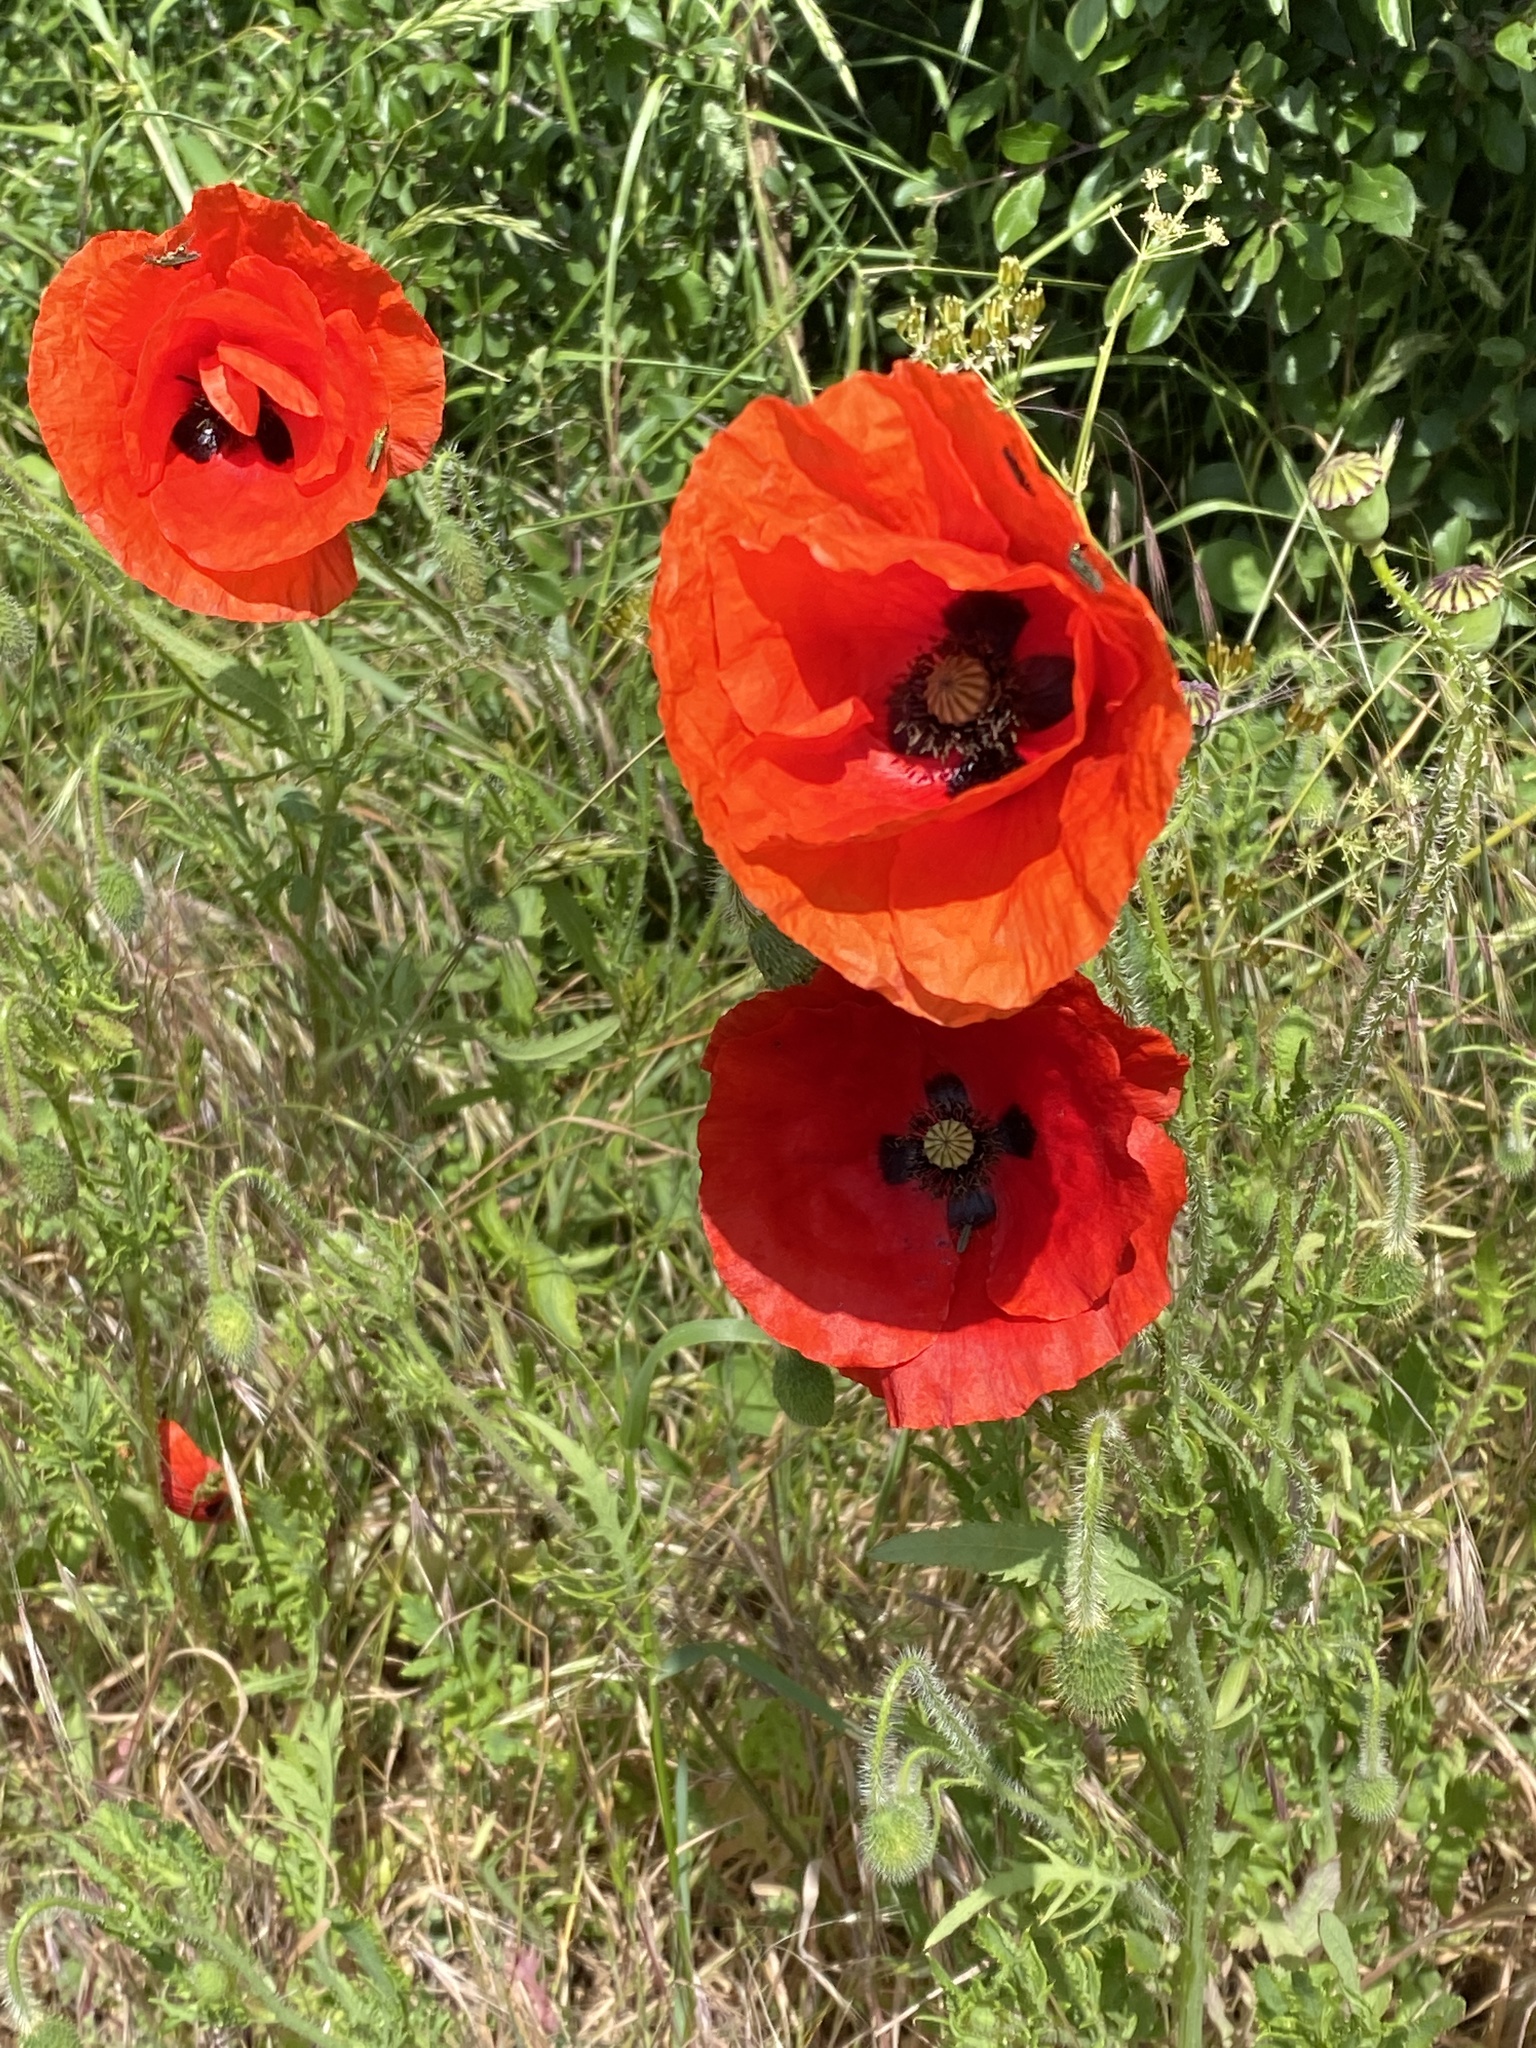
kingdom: Plantae
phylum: Tracheophyta
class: Magnoliopsida
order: Ranunculales
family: Papaveraceae
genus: Papaver
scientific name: Papaver rhoeas
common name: Corn poppy
